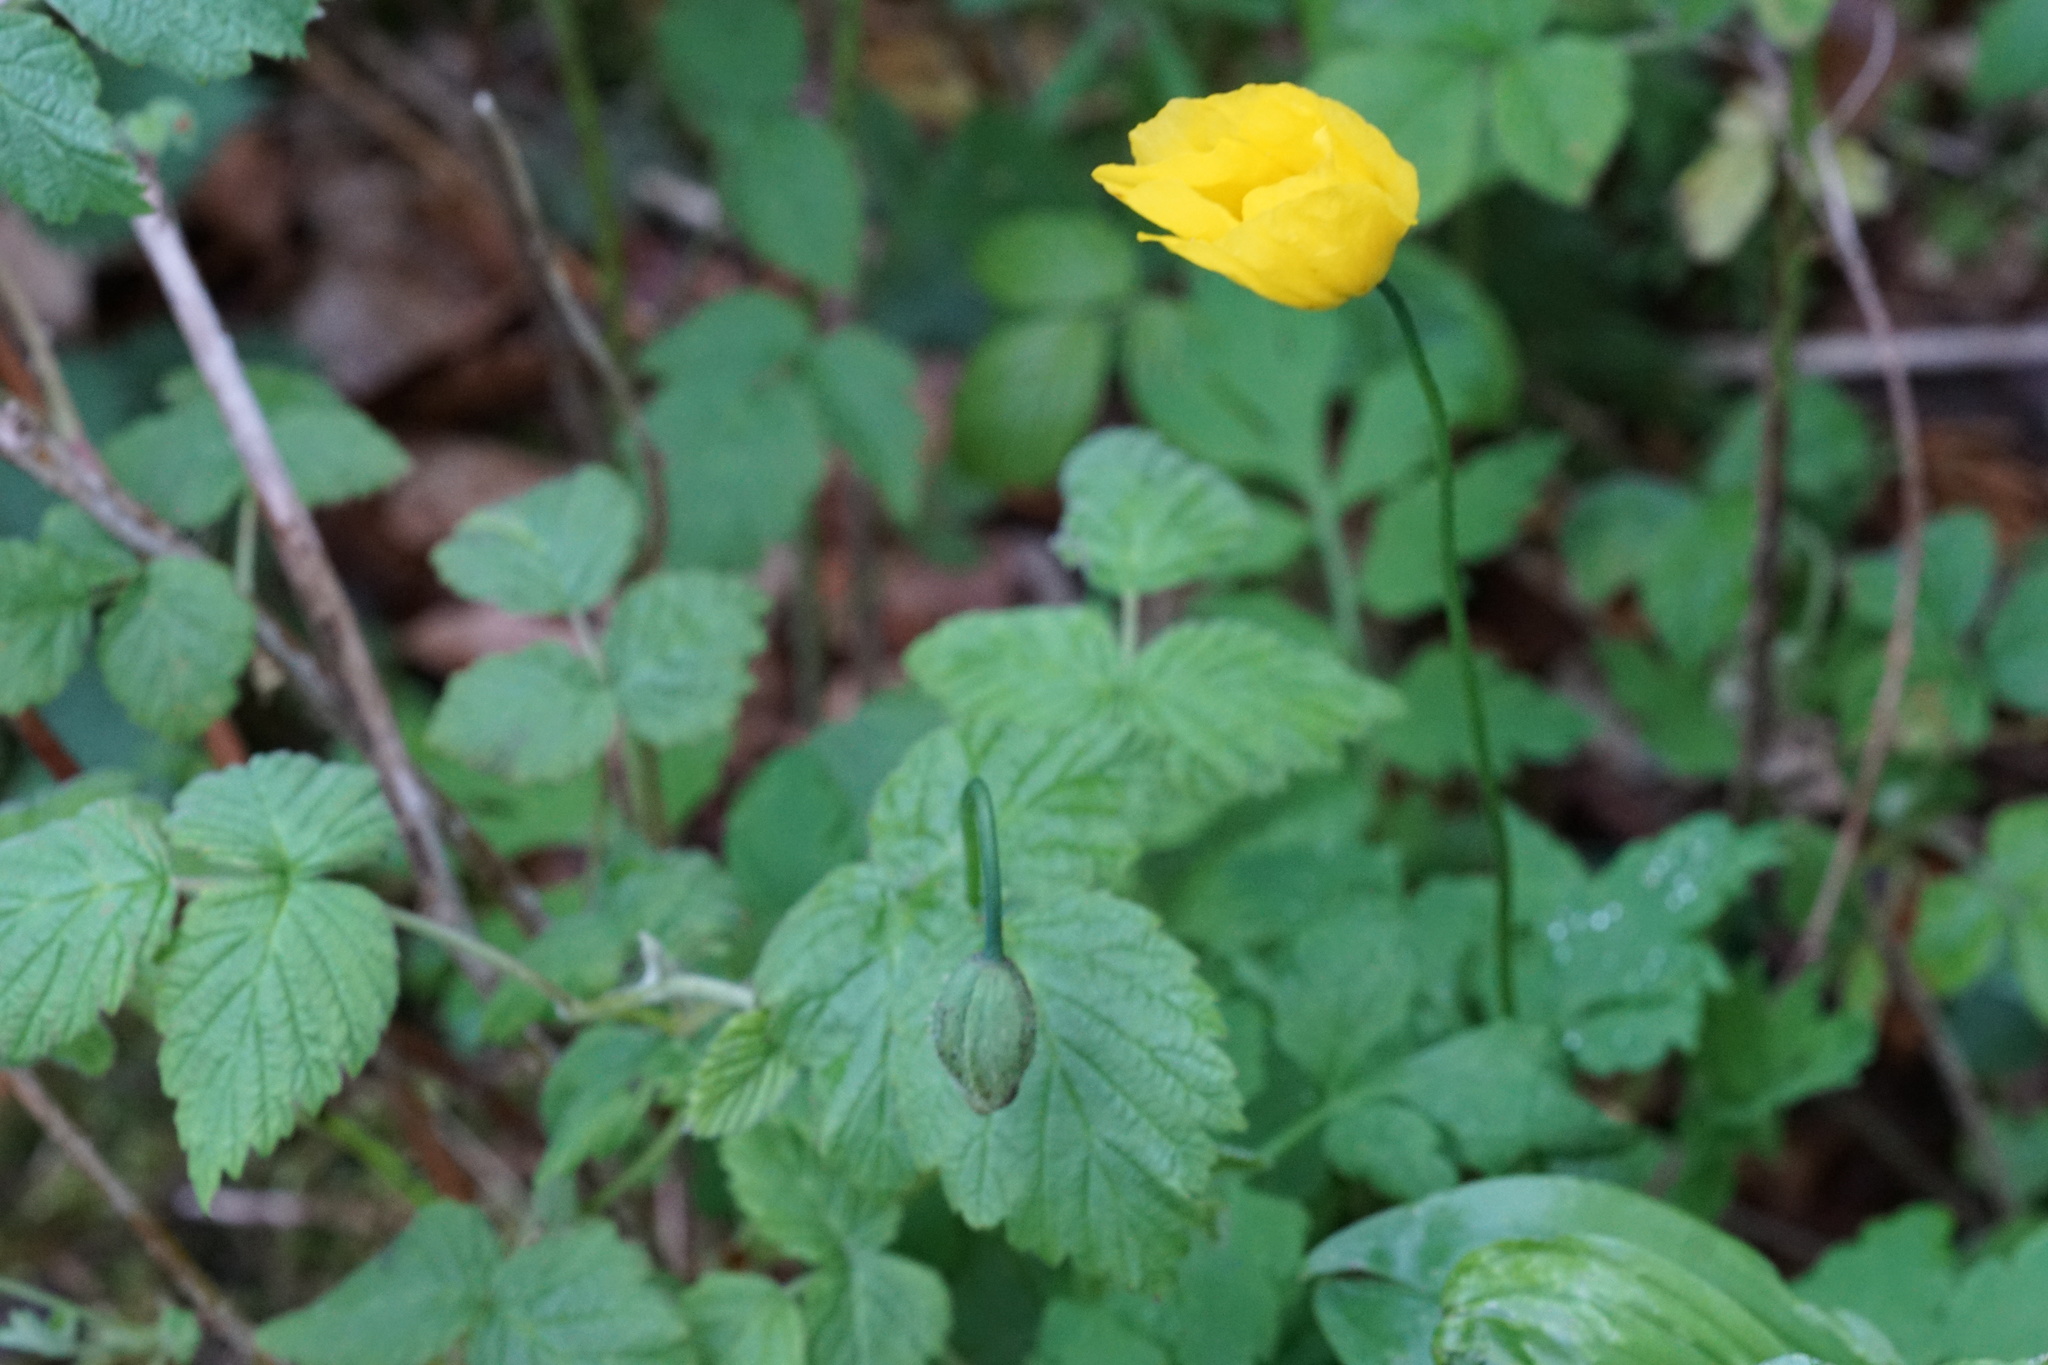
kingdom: Plantae
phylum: Tracheophyta
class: Magnoliopsida
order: Ranunculales
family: Papaveraceae
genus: Papaver
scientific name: Papaver cambricum
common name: Poppy
